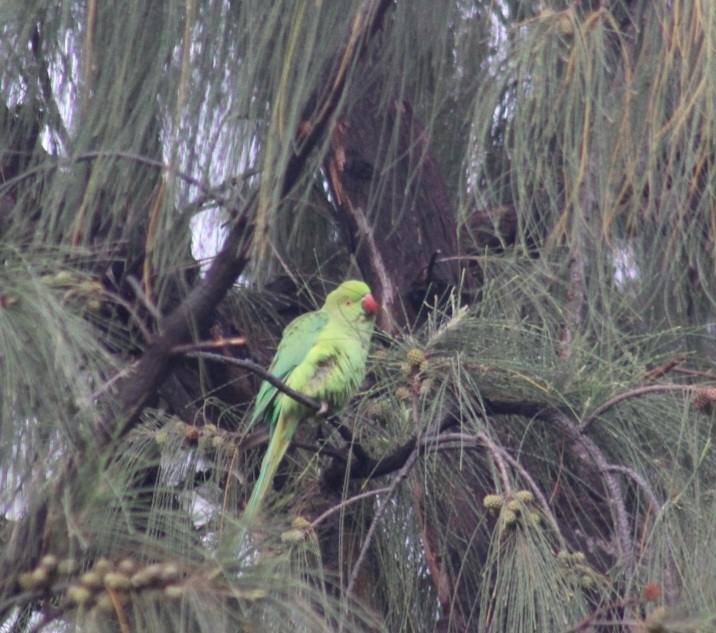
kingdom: Animalia
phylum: Chordata
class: Aves
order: Psittaciformes
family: Psittacidae
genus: Psittacula
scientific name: Psittacula krameri
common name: Rose-ringed parakeet
